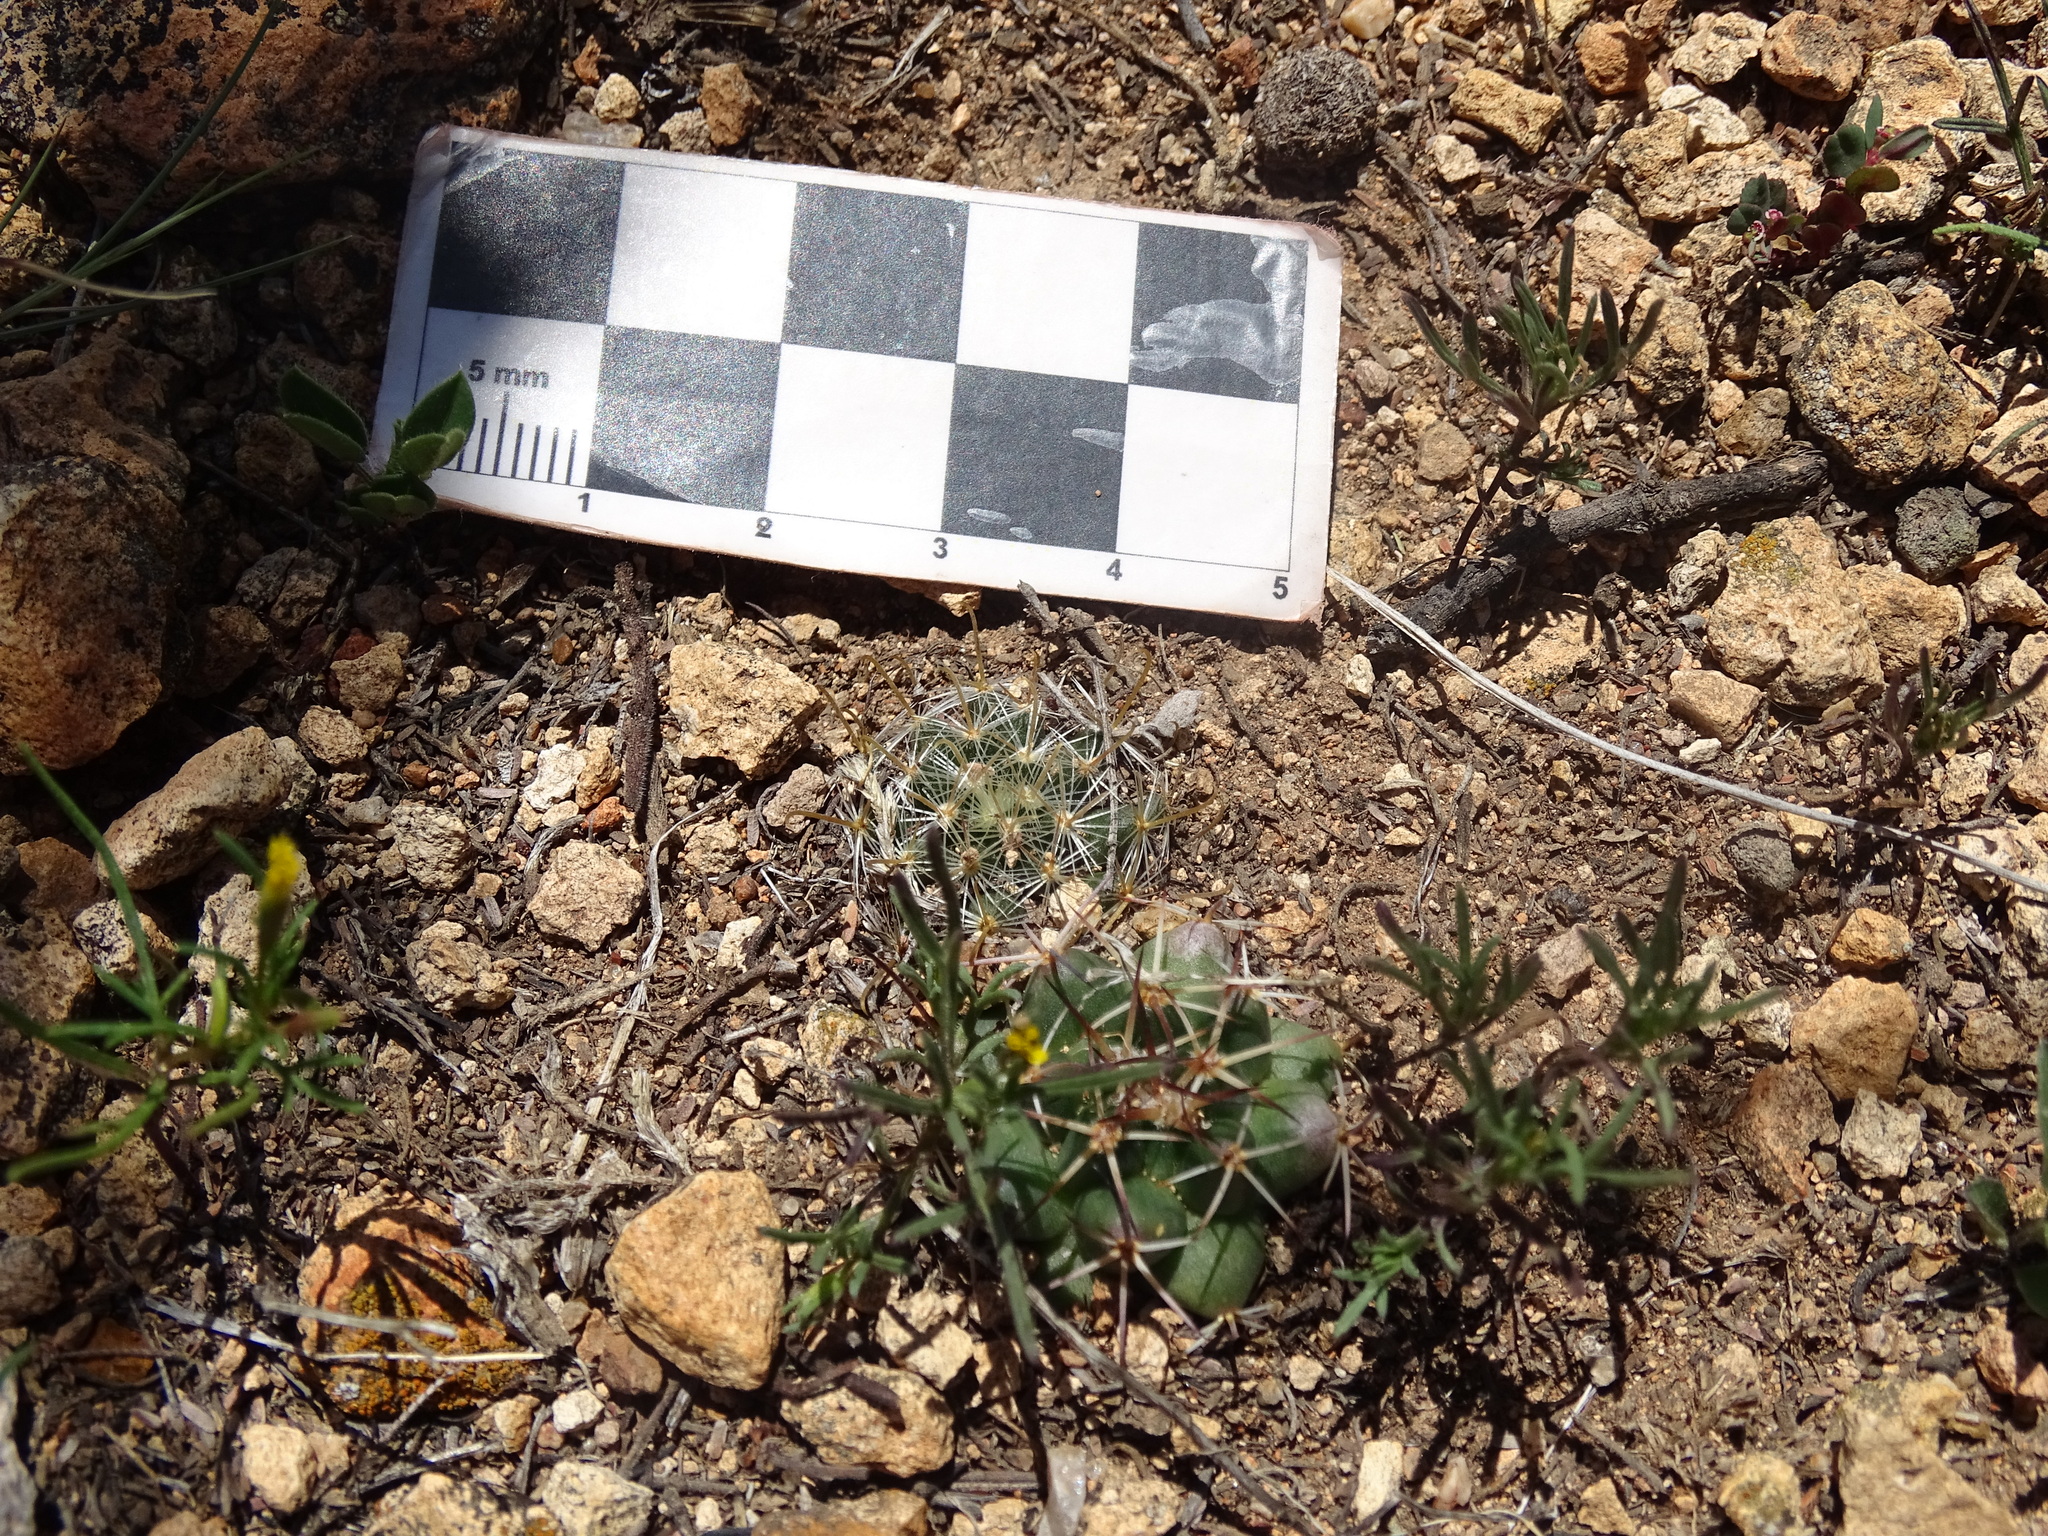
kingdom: Plantae
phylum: Tracheophyta
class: Magnoliopsida
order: Caryophyllales
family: Cactaceae
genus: Mammillaria
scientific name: Mammillaria jaliscana
